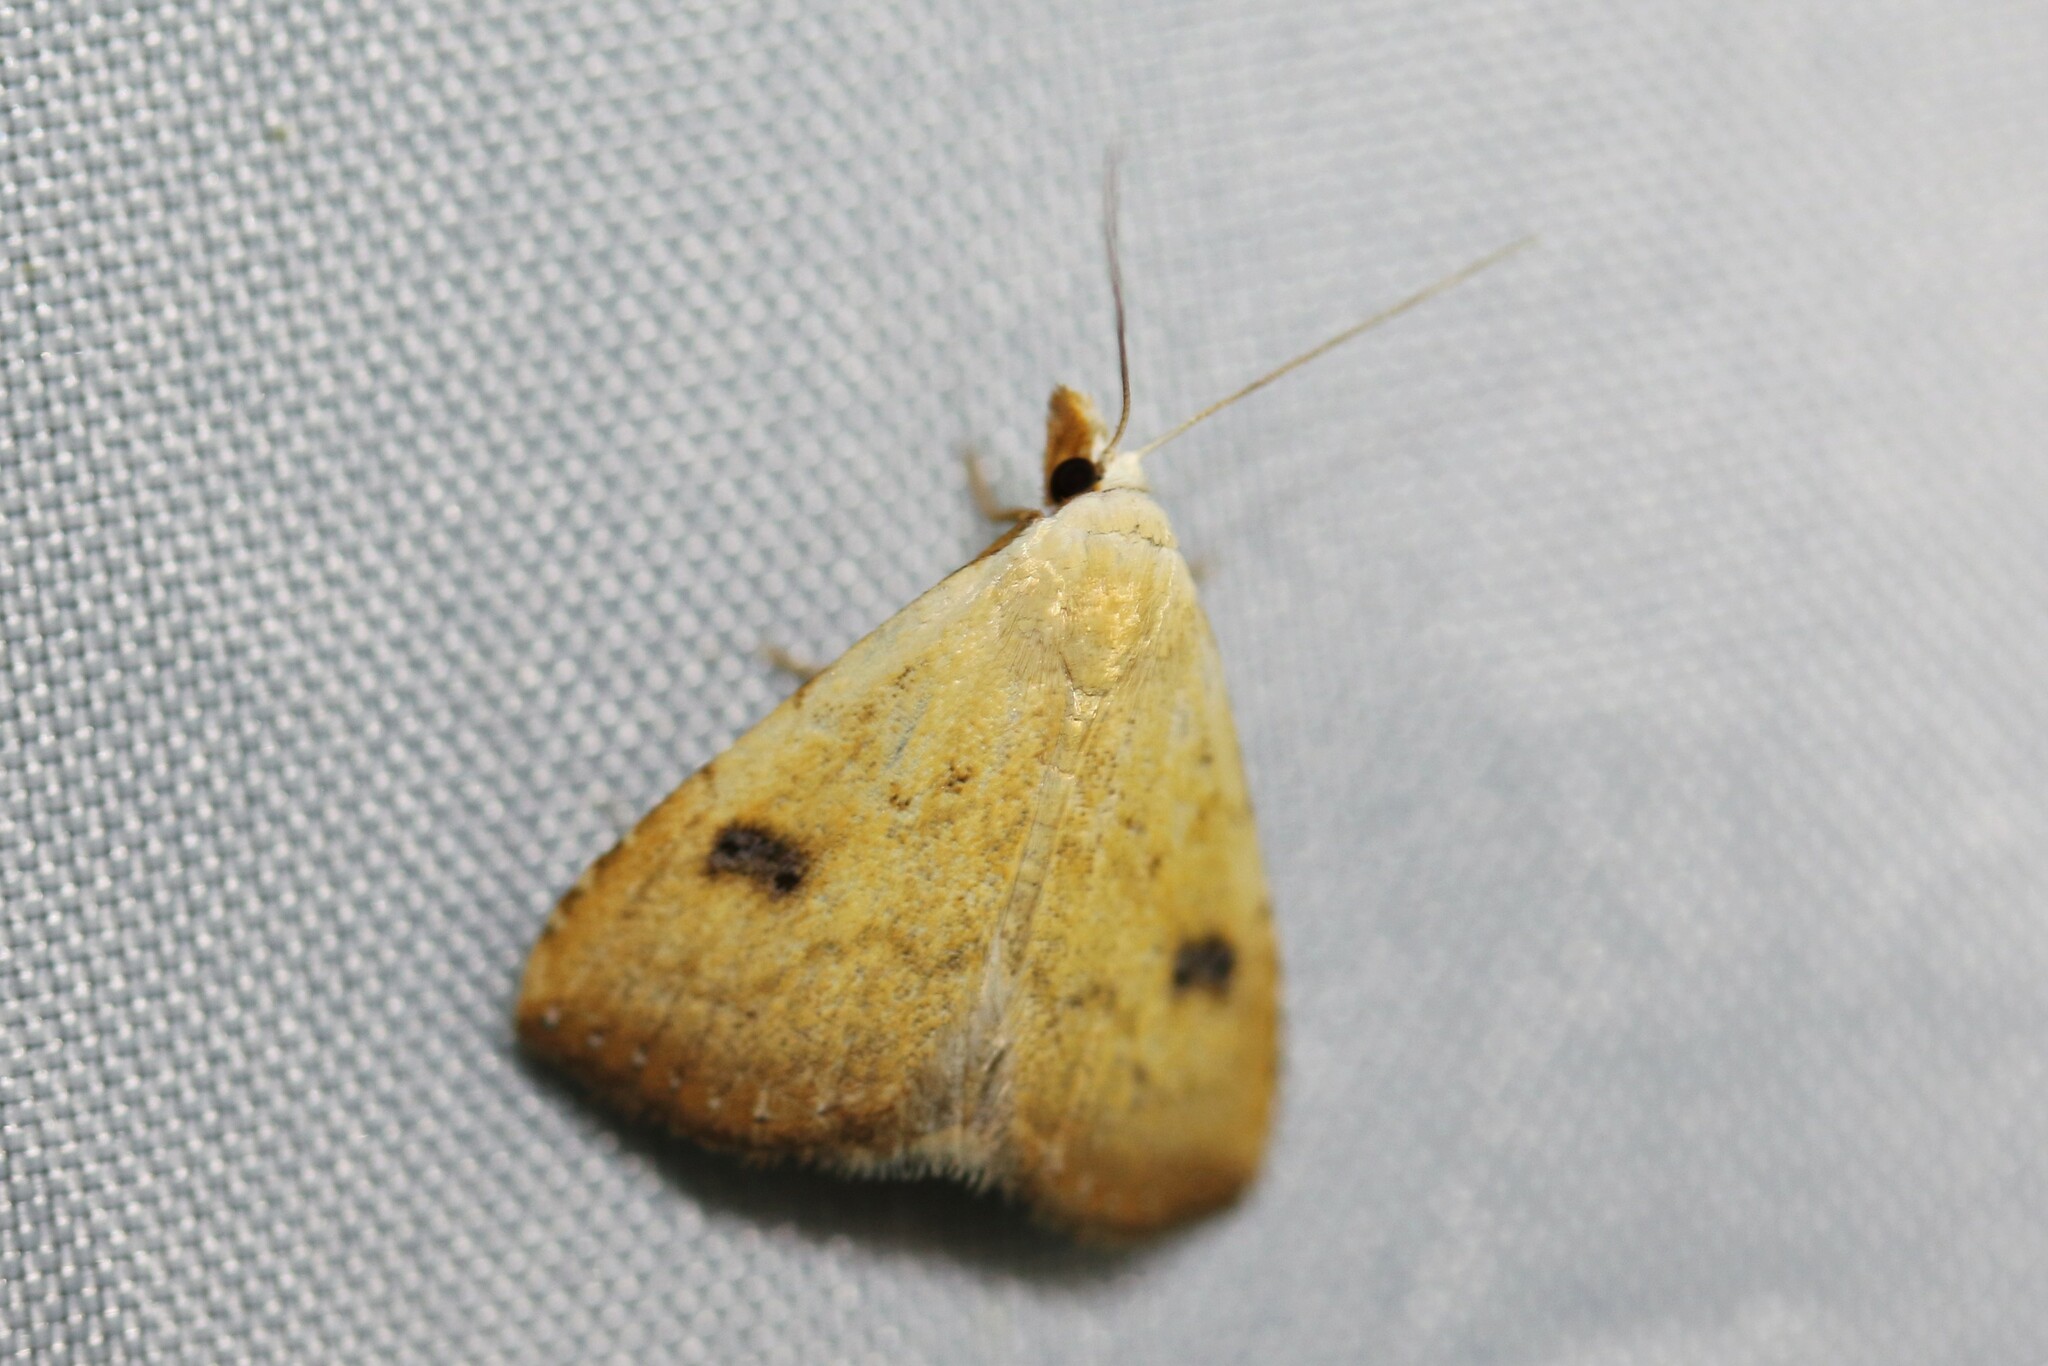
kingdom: Animalia
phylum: Arthropoda
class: Insecta
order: Lepidoptera
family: Erebidae
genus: Rivula
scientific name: Rivula sericealis
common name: Straw dot
